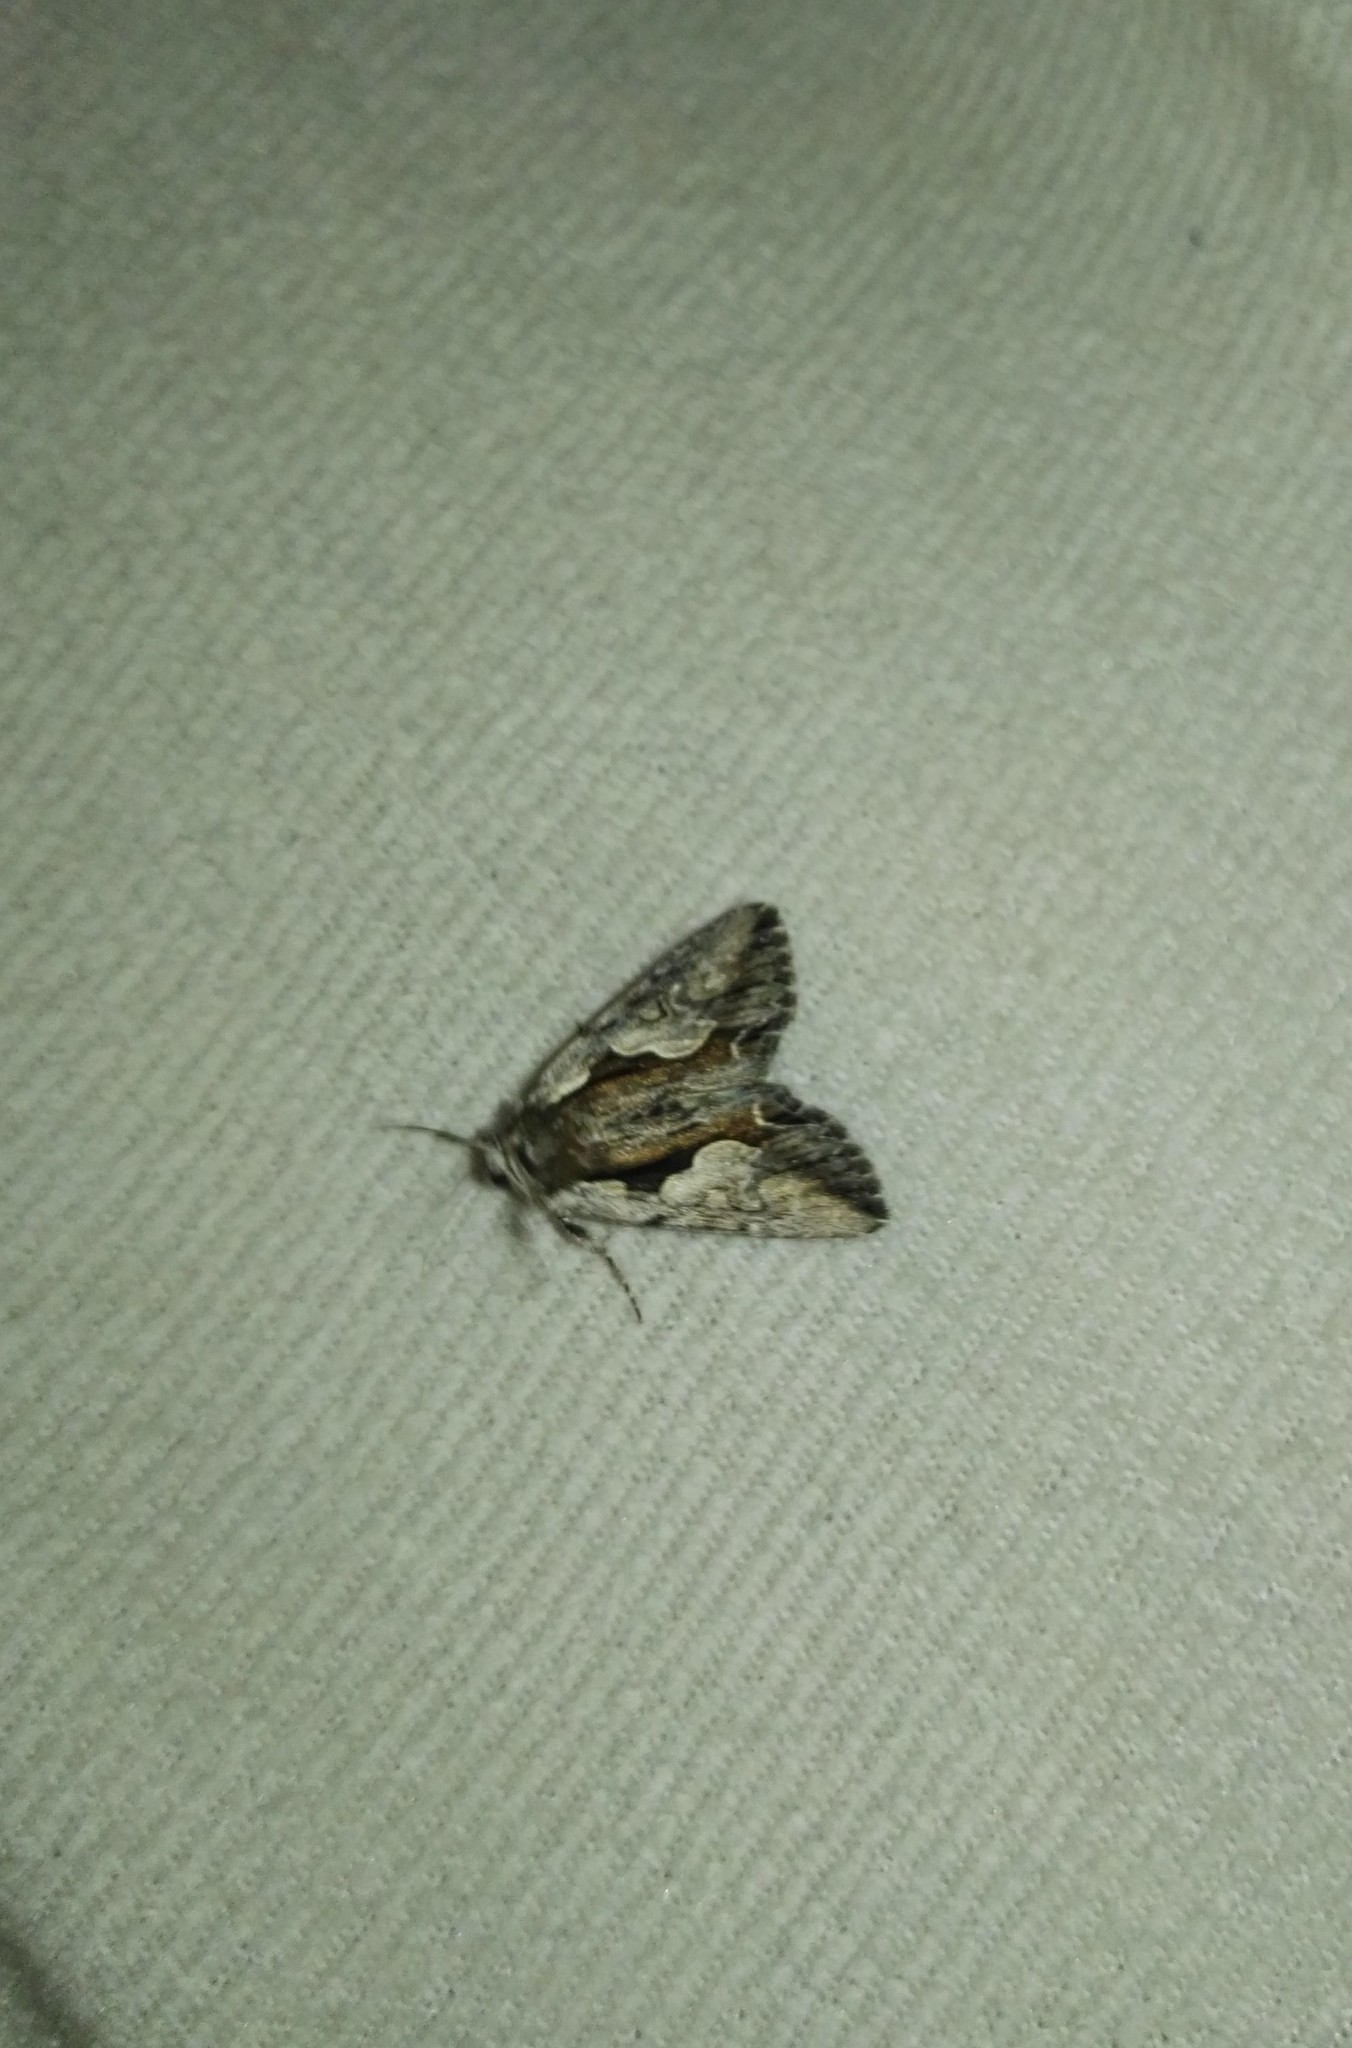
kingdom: Animalia
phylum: Arthropoda
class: Insecta
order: Lepidoptera
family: Noctuidae
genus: Calliergis
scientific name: Calliergis ramosa
